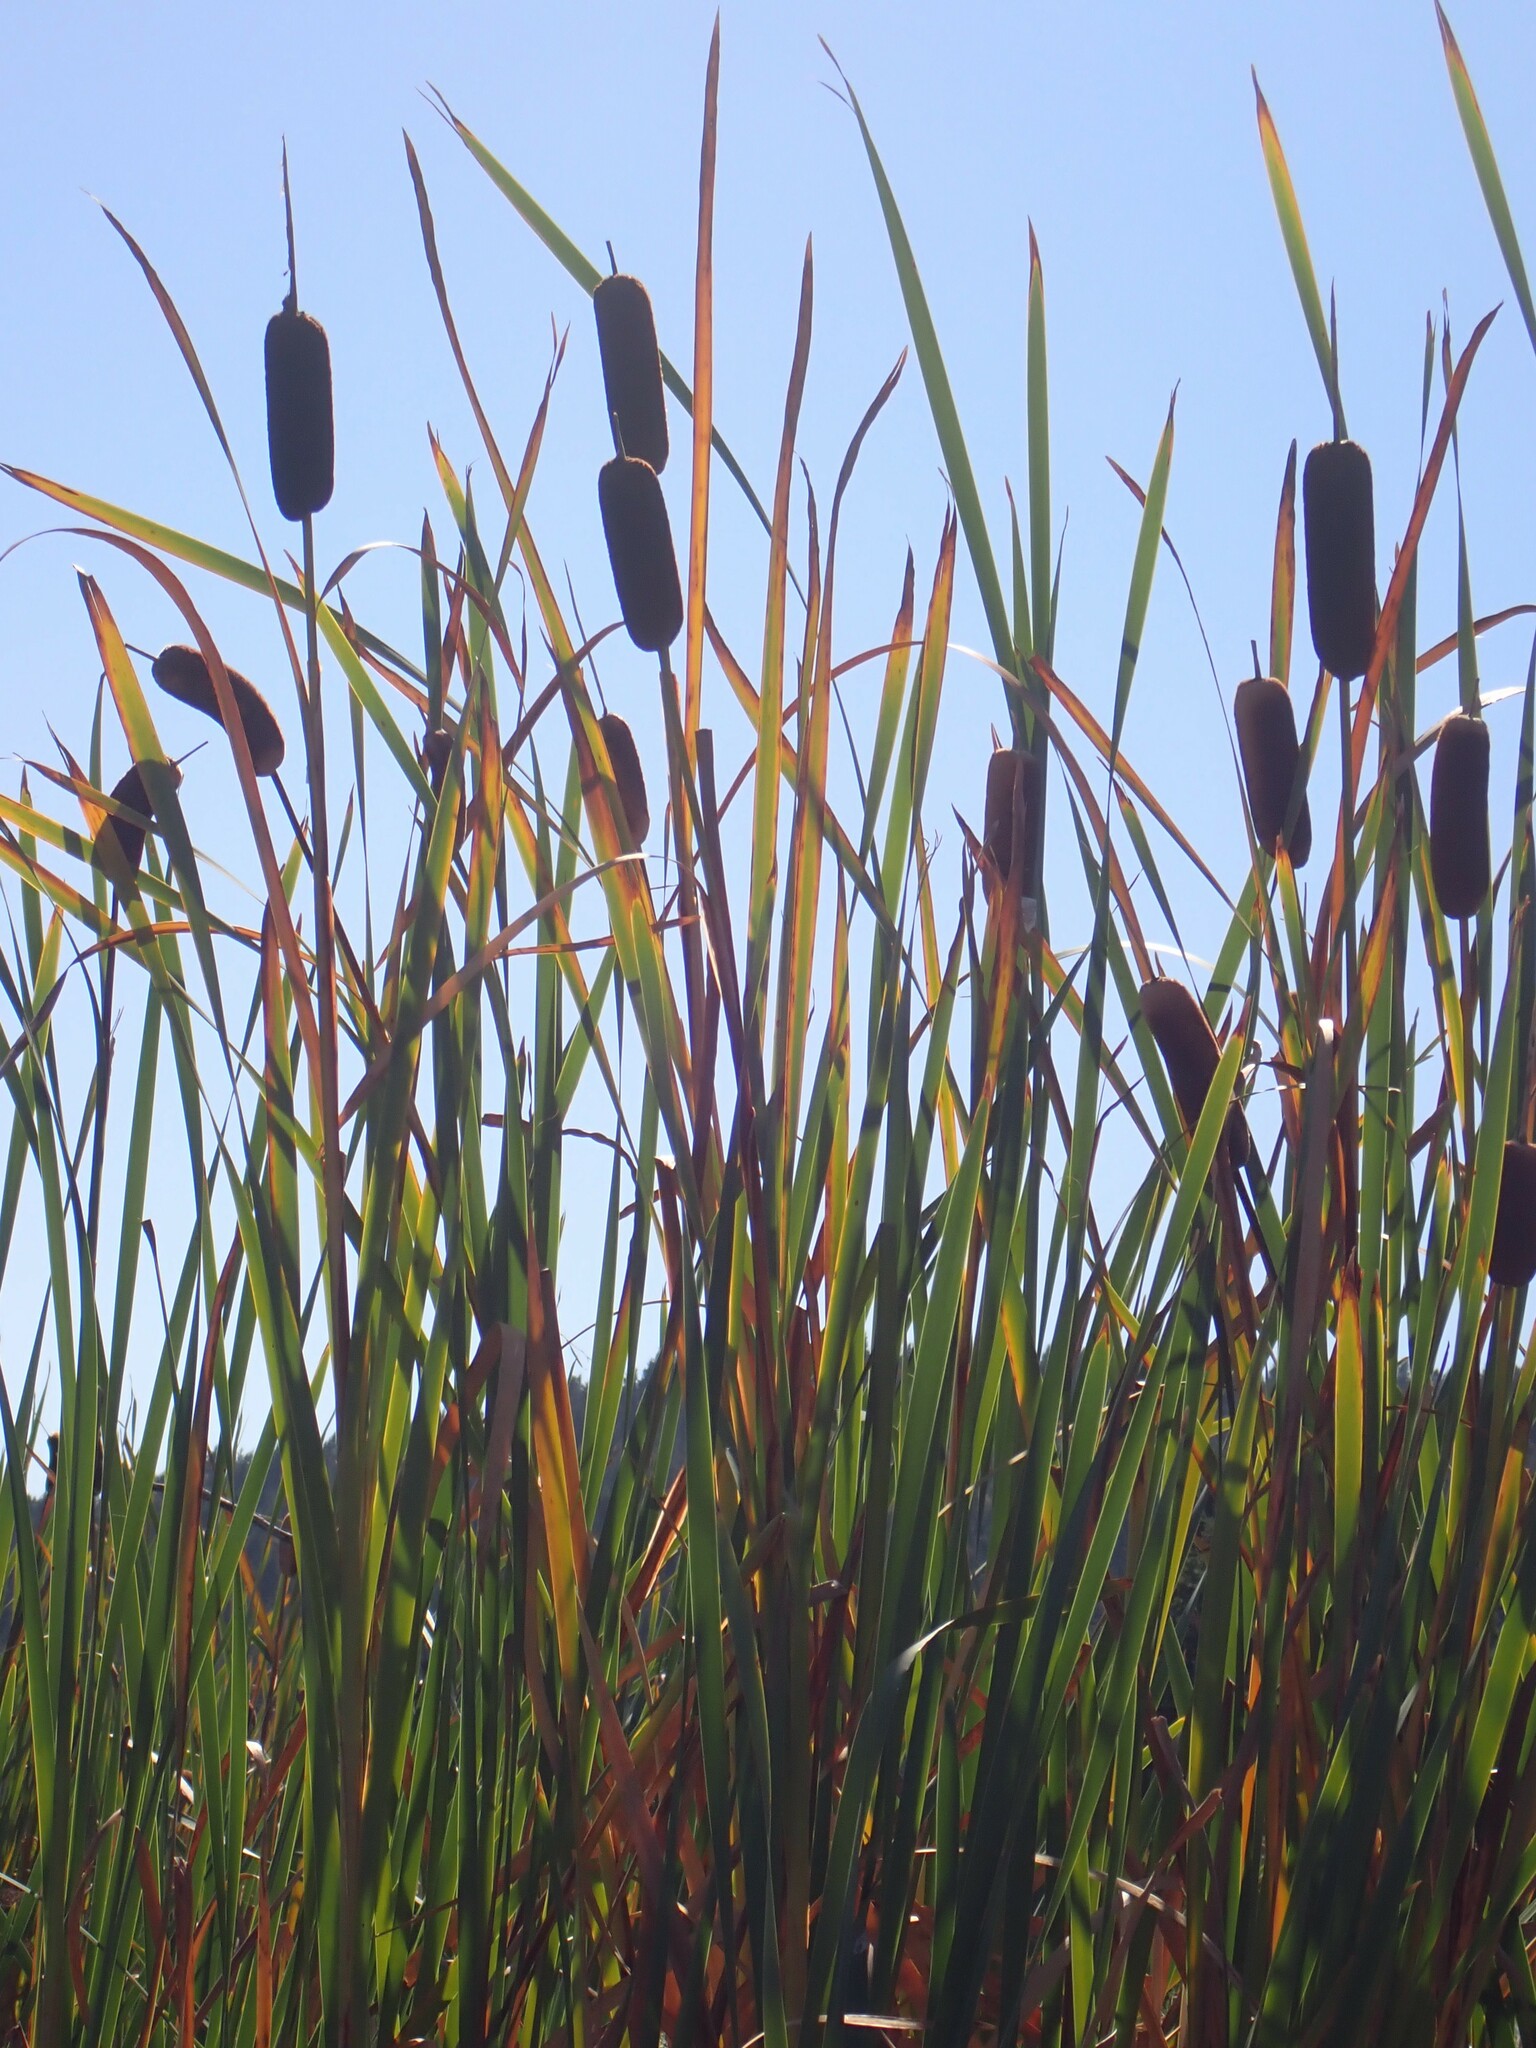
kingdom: Plantae
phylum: Tracheophyta
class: Liliopsida
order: Poales
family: Typhaceae
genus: Typha
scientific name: Typha latifolia
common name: Broadleaf cattail
